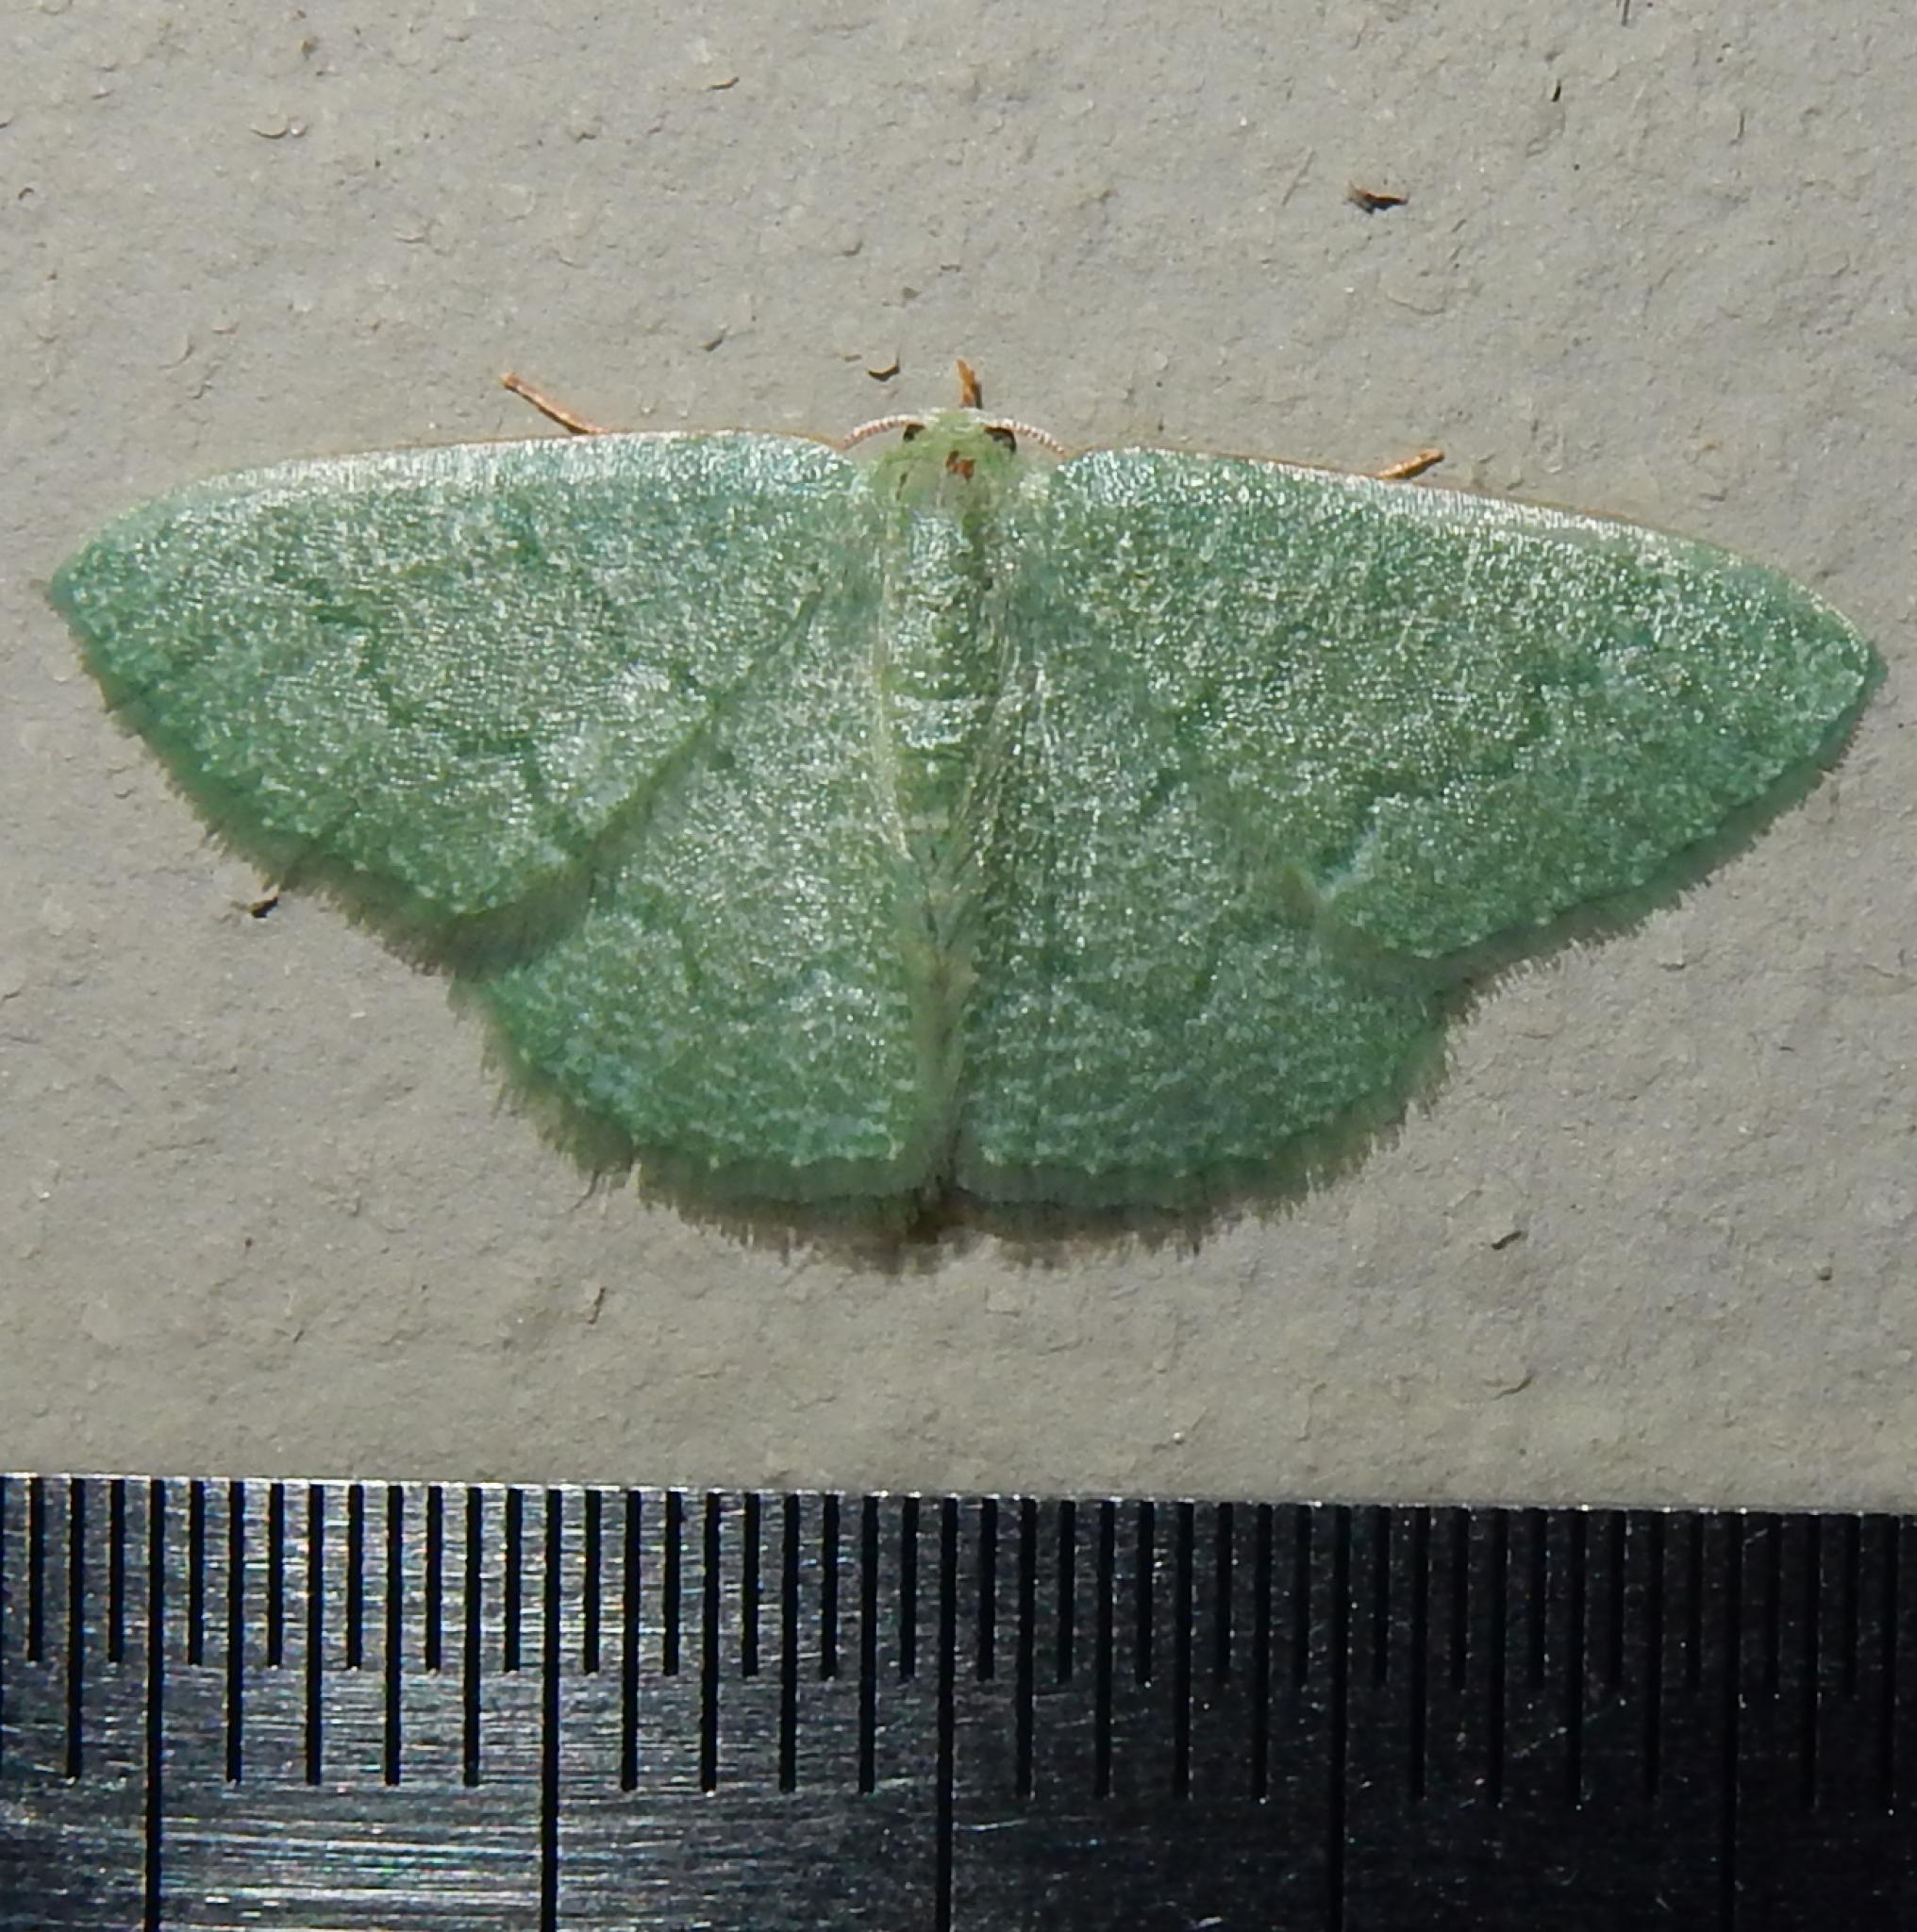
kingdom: Animalia
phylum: Arthropoda
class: Insecta
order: Lepidoptera
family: Geometridae
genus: Chlorissa
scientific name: Chlorissa albistrigulata
